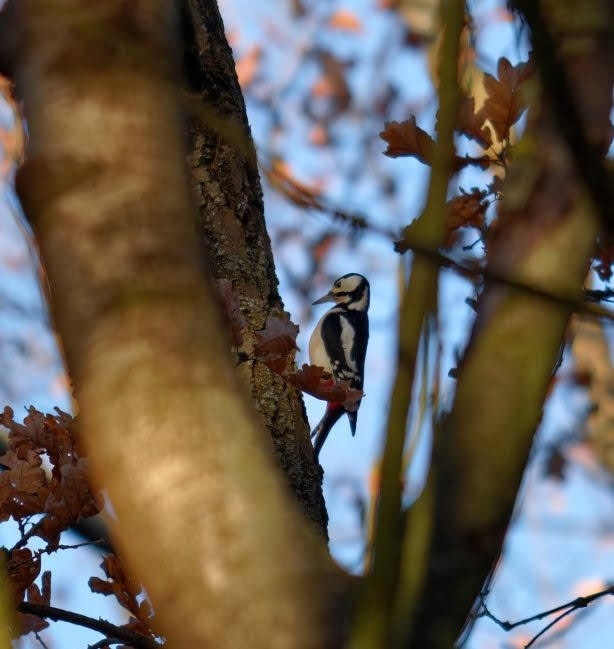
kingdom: Animalia
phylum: Chordata
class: Aves
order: Piciformes
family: Picidae
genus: Dendrocopos
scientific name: Dendrocopos major
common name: Great spotted woodpecker
